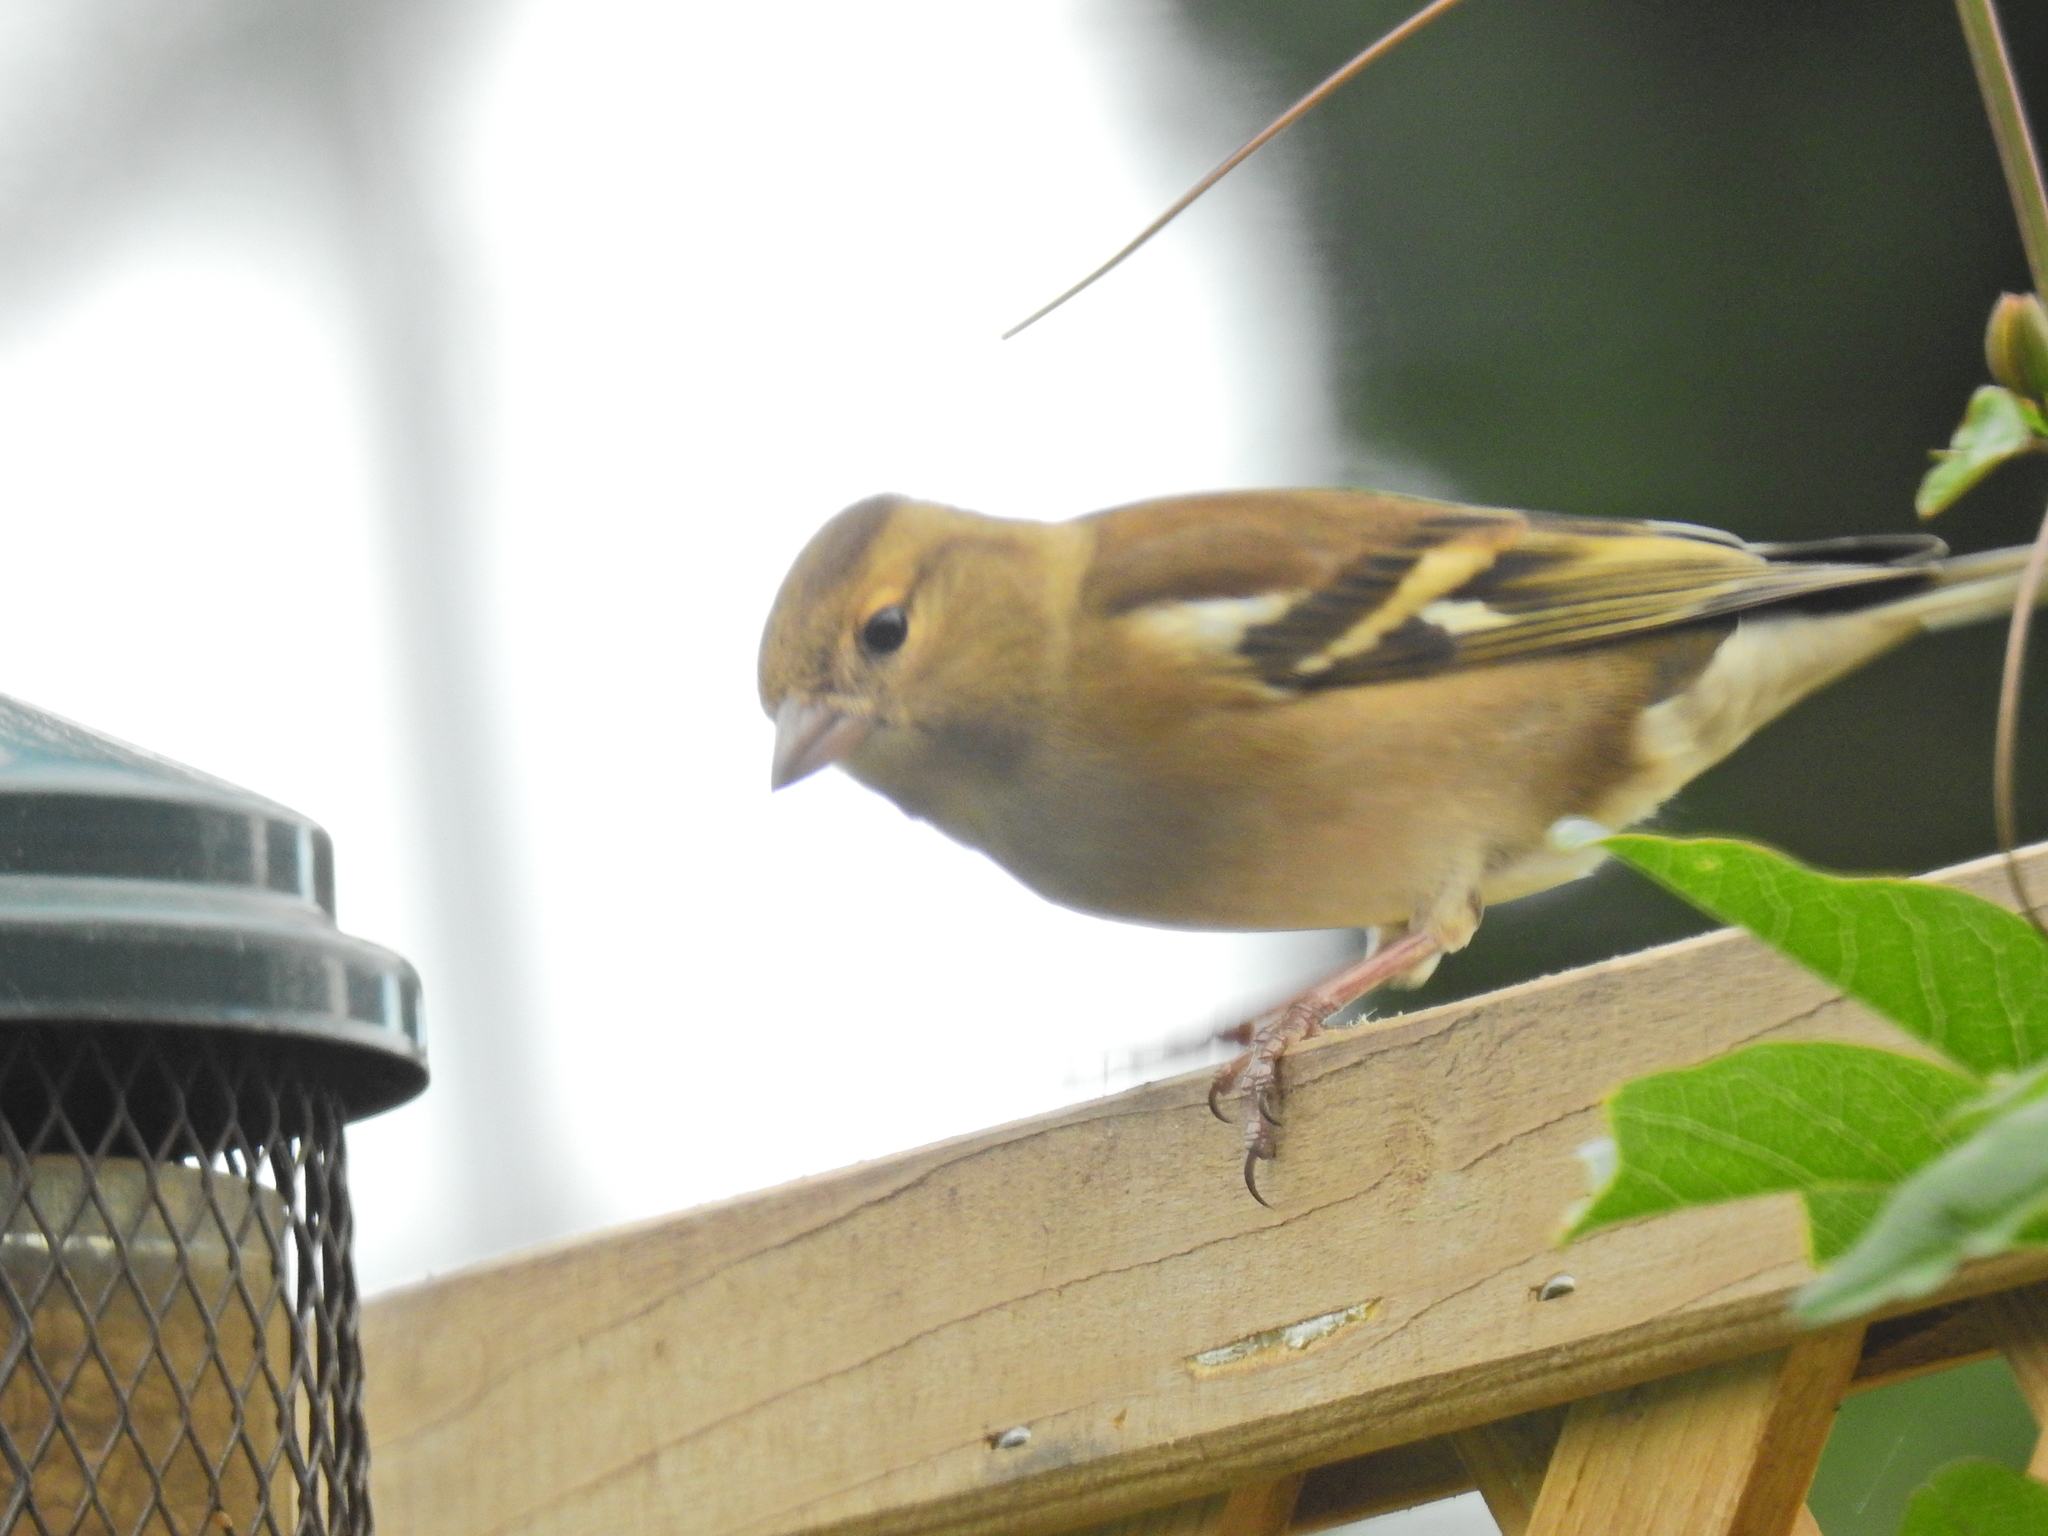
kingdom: Animalia
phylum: Chordata
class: Aves
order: Passeriformes
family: Fringillidae
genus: Fringilla
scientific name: Fringilla coelebs
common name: Common chaffinch
